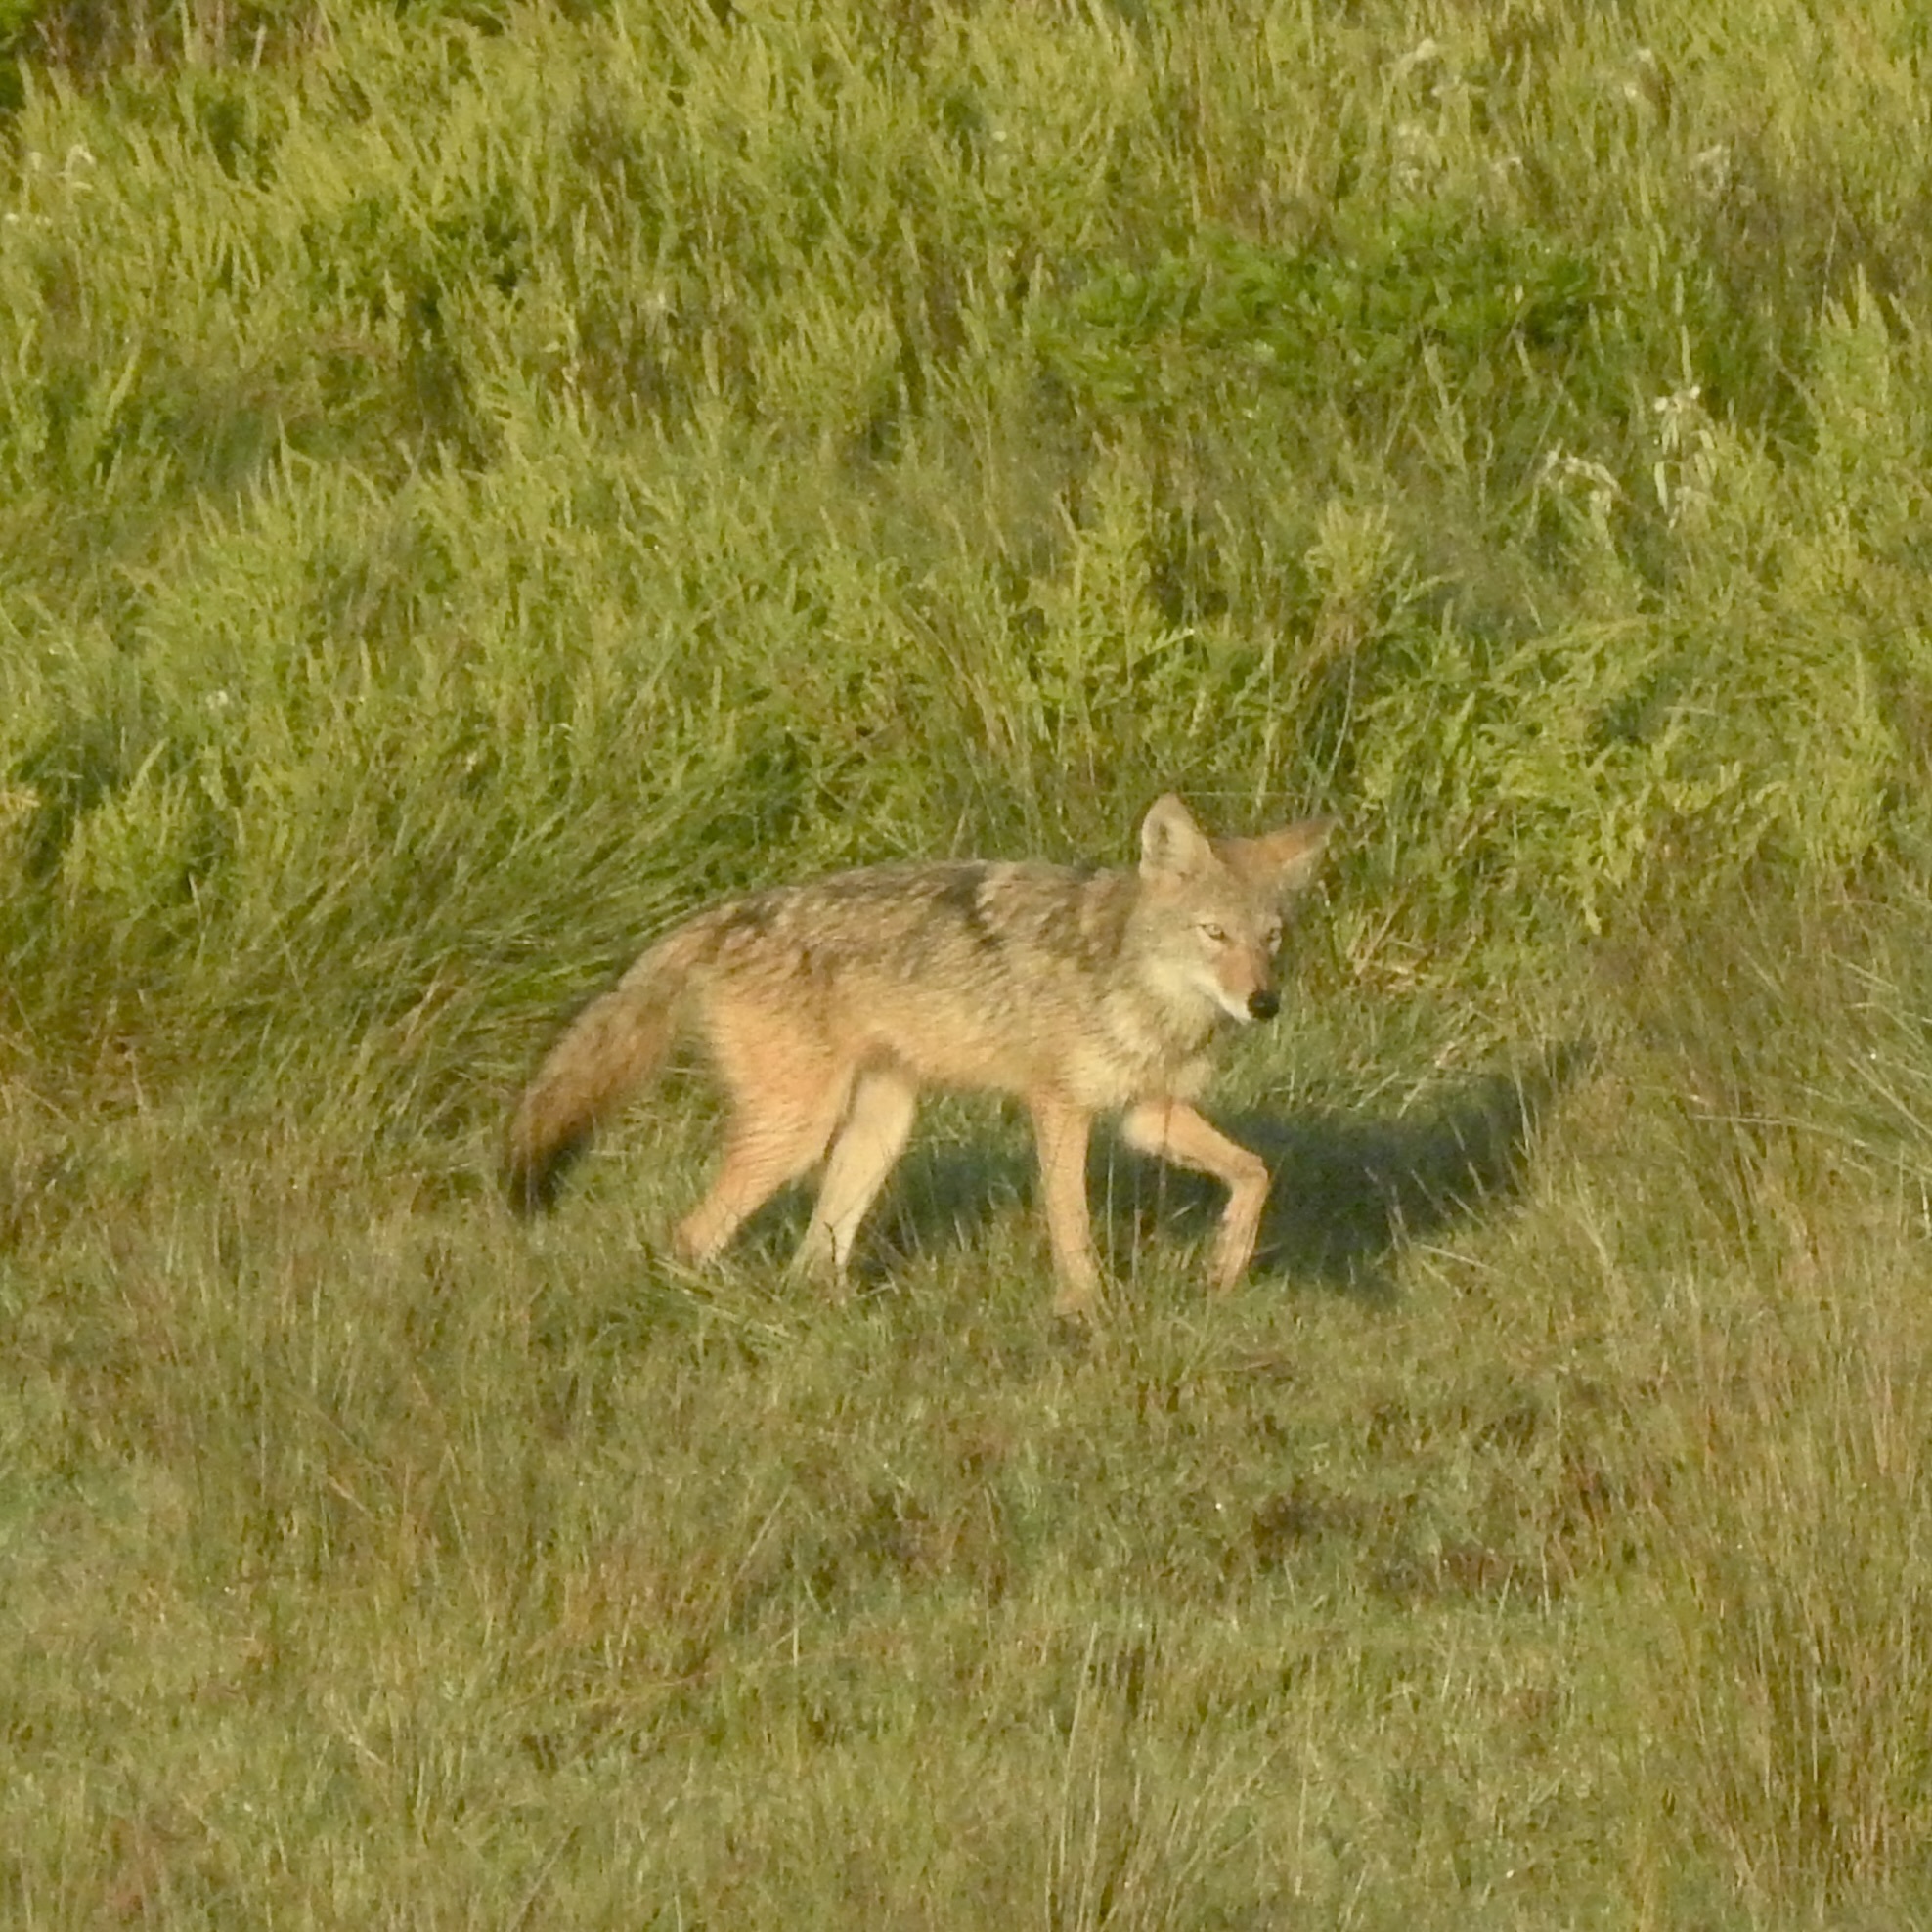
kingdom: Animalia
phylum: Chordata
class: Mammalia
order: Carnivora
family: Canidae
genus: Canis
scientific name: Canis latrans
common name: Coyote
